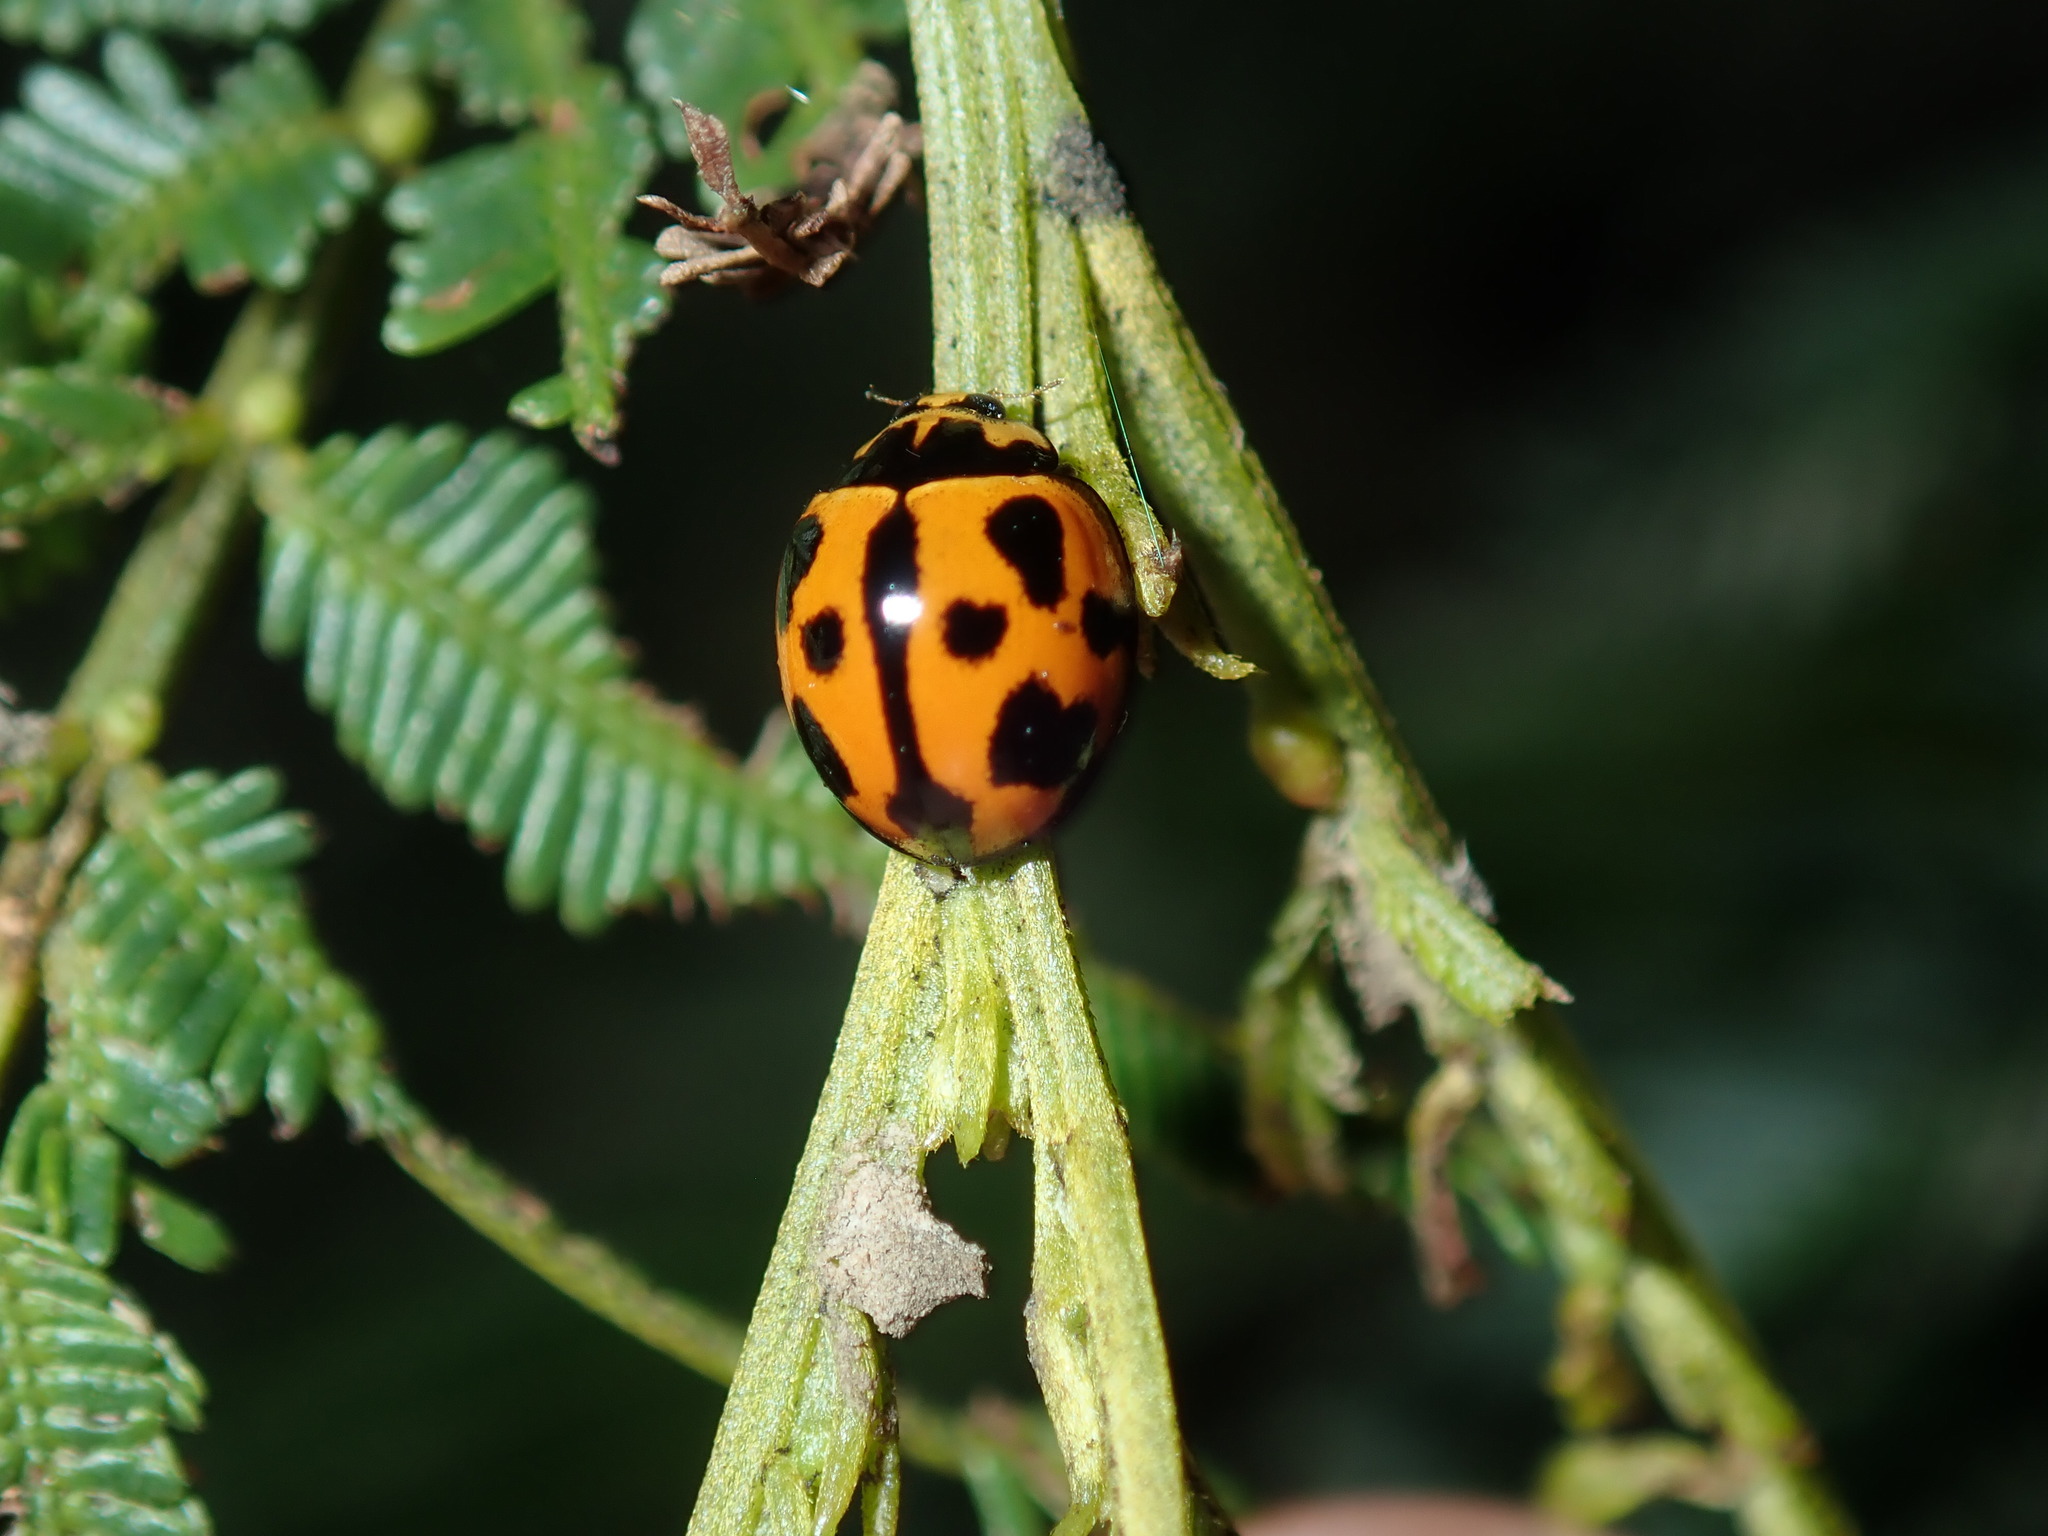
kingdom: Animalia
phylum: Arthropoda
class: Insecta
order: Coleoptera
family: Coccinellidae
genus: Coelophora
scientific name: Coelophora inaequalis
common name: Common australian lady beetle
